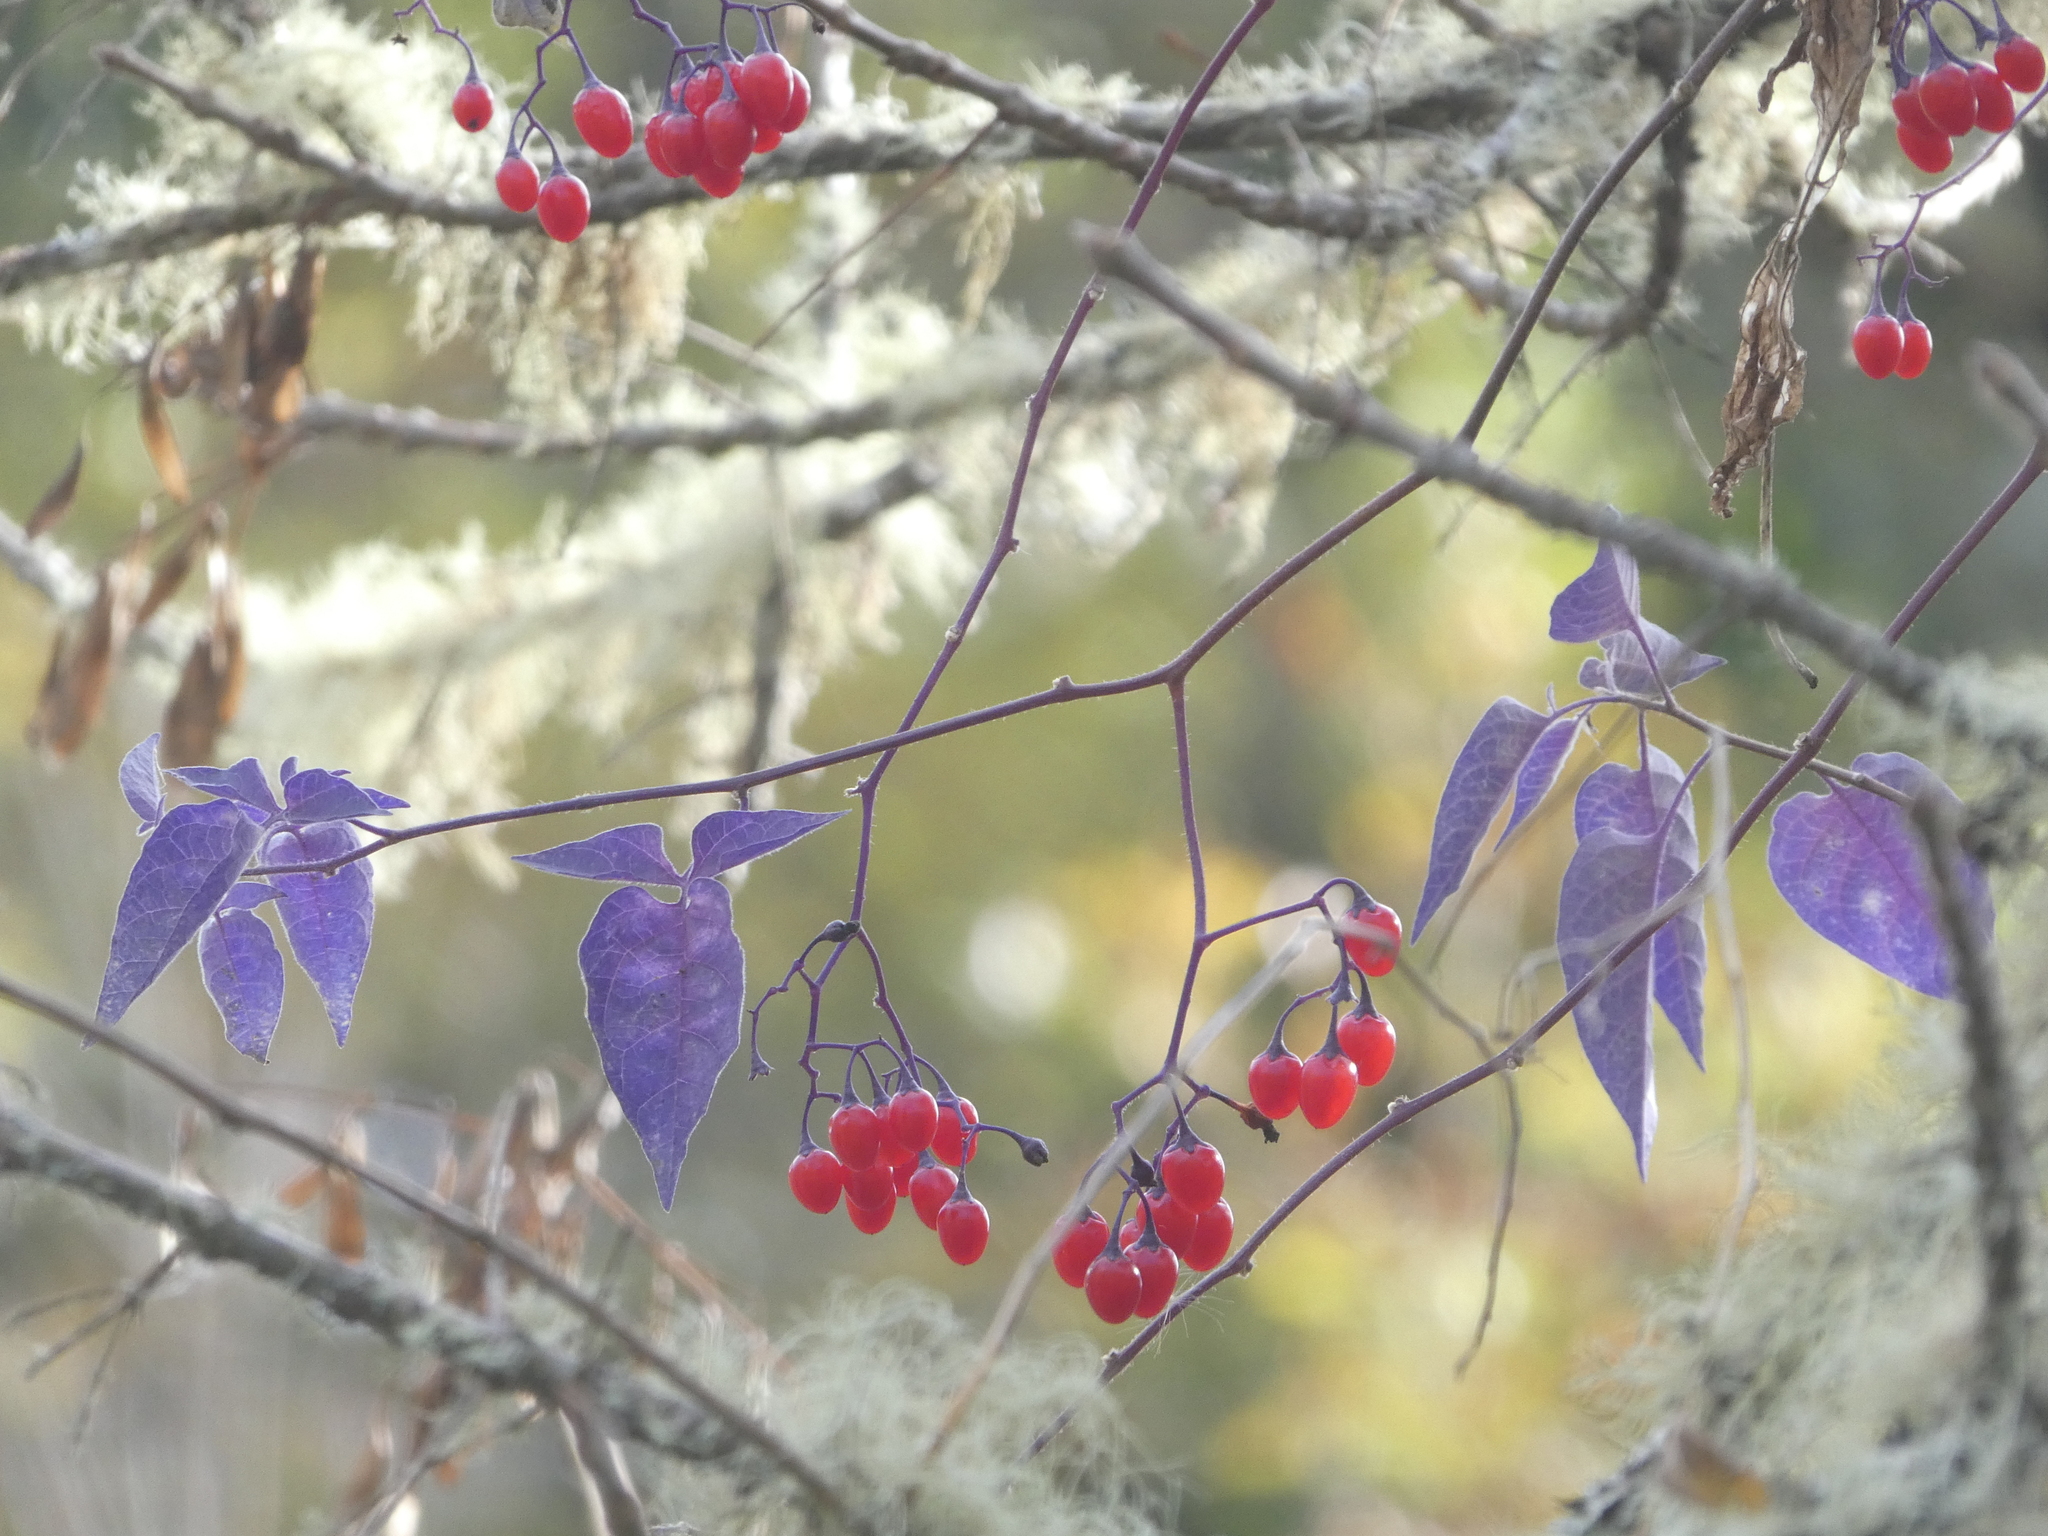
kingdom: Plantae
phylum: Tracheophyta
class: Magnoliopsida
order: Solanales
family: Solanaceae
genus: Solanum
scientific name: Solanum dulcamara
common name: Climbing nightshade
